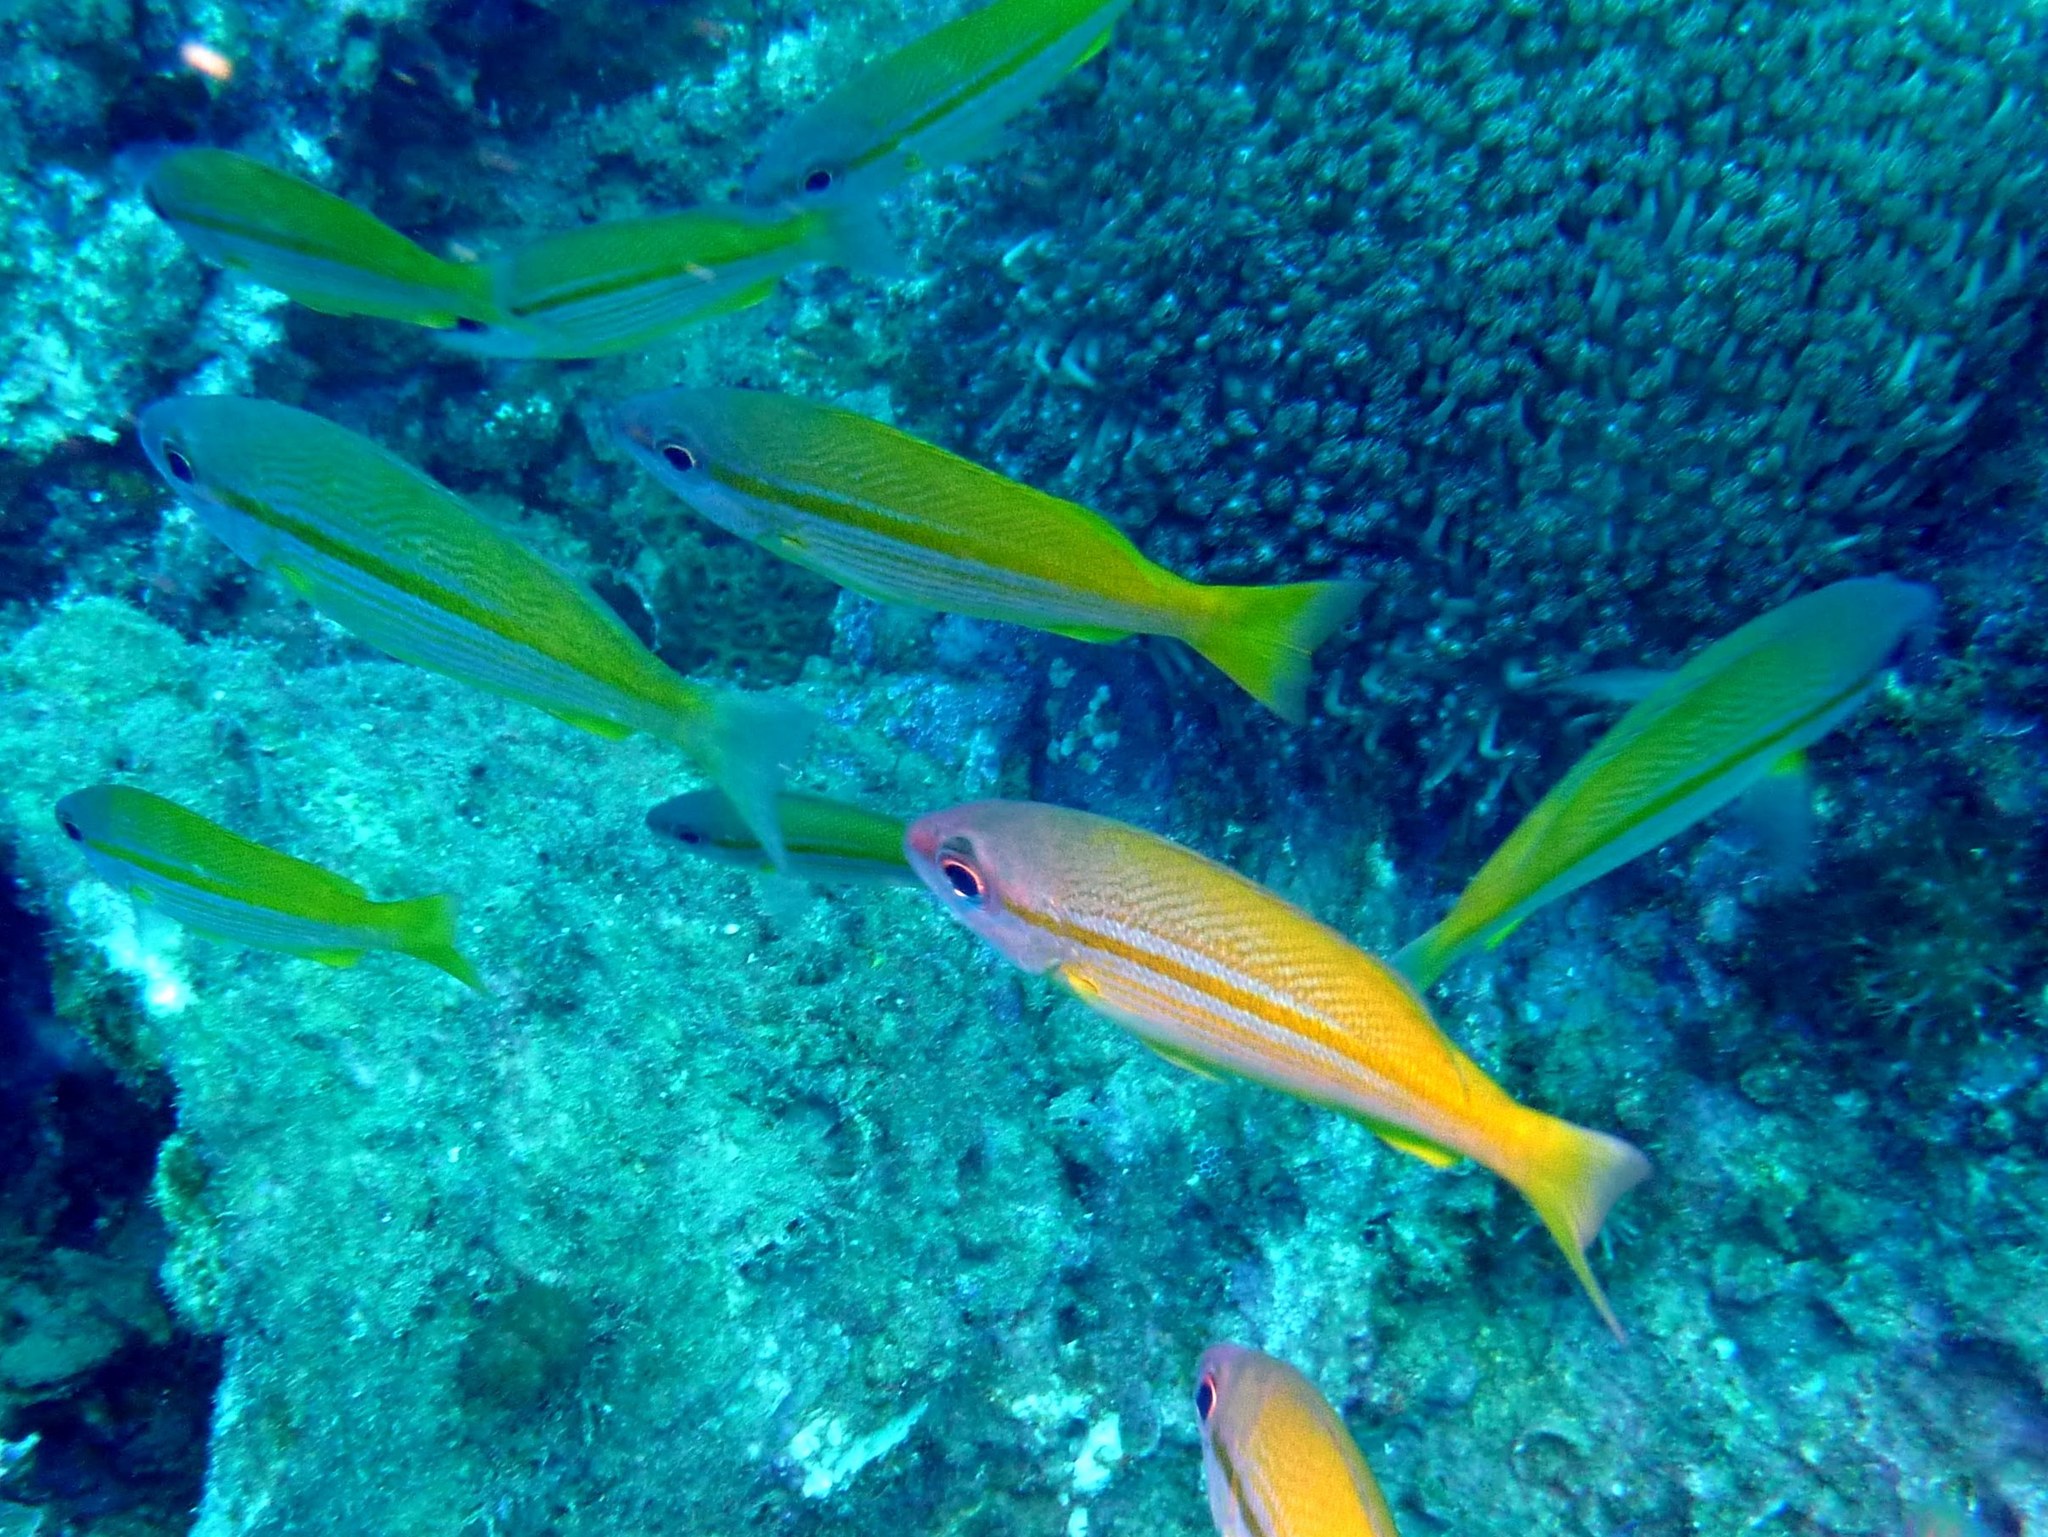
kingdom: Animalia
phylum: Chordata
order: Perciformes
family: Lutjanidae
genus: Lutjanus
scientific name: Lutjanus lutjanus
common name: Bigeye snapper
